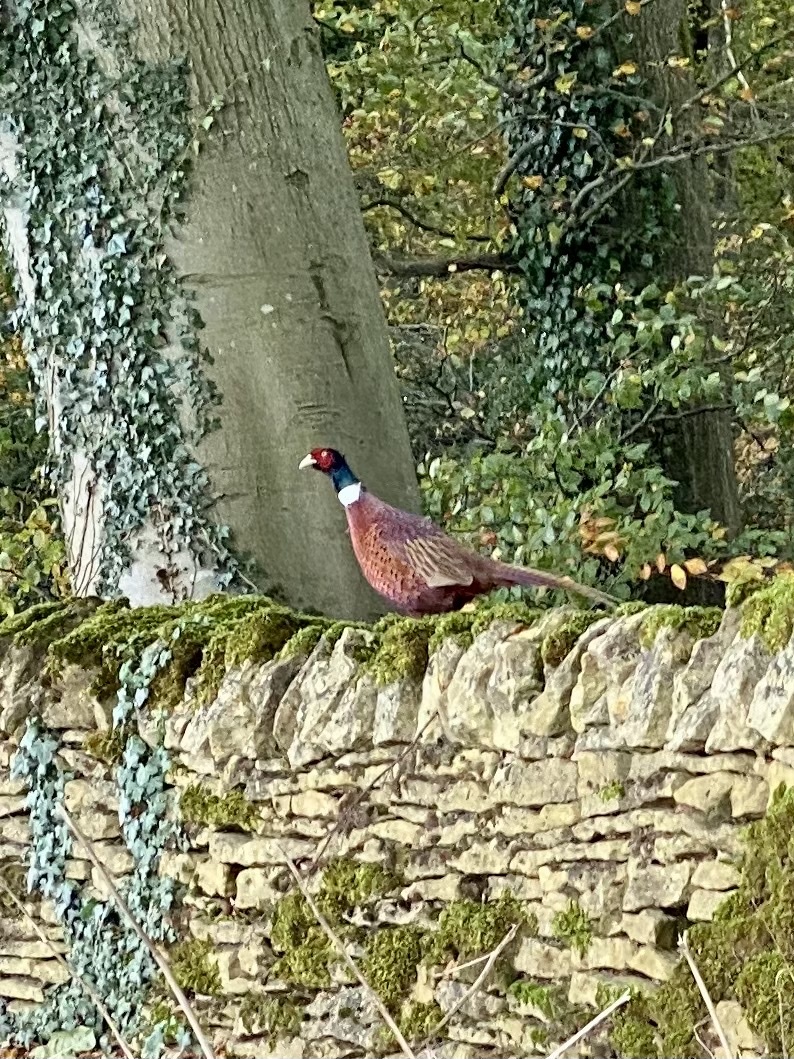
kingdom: Animalia
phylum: Chordata
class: Aves
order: Galliformes
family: Phasianidae
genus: Phasianus
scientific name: Phasianus colchicus
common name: Common pheasant
